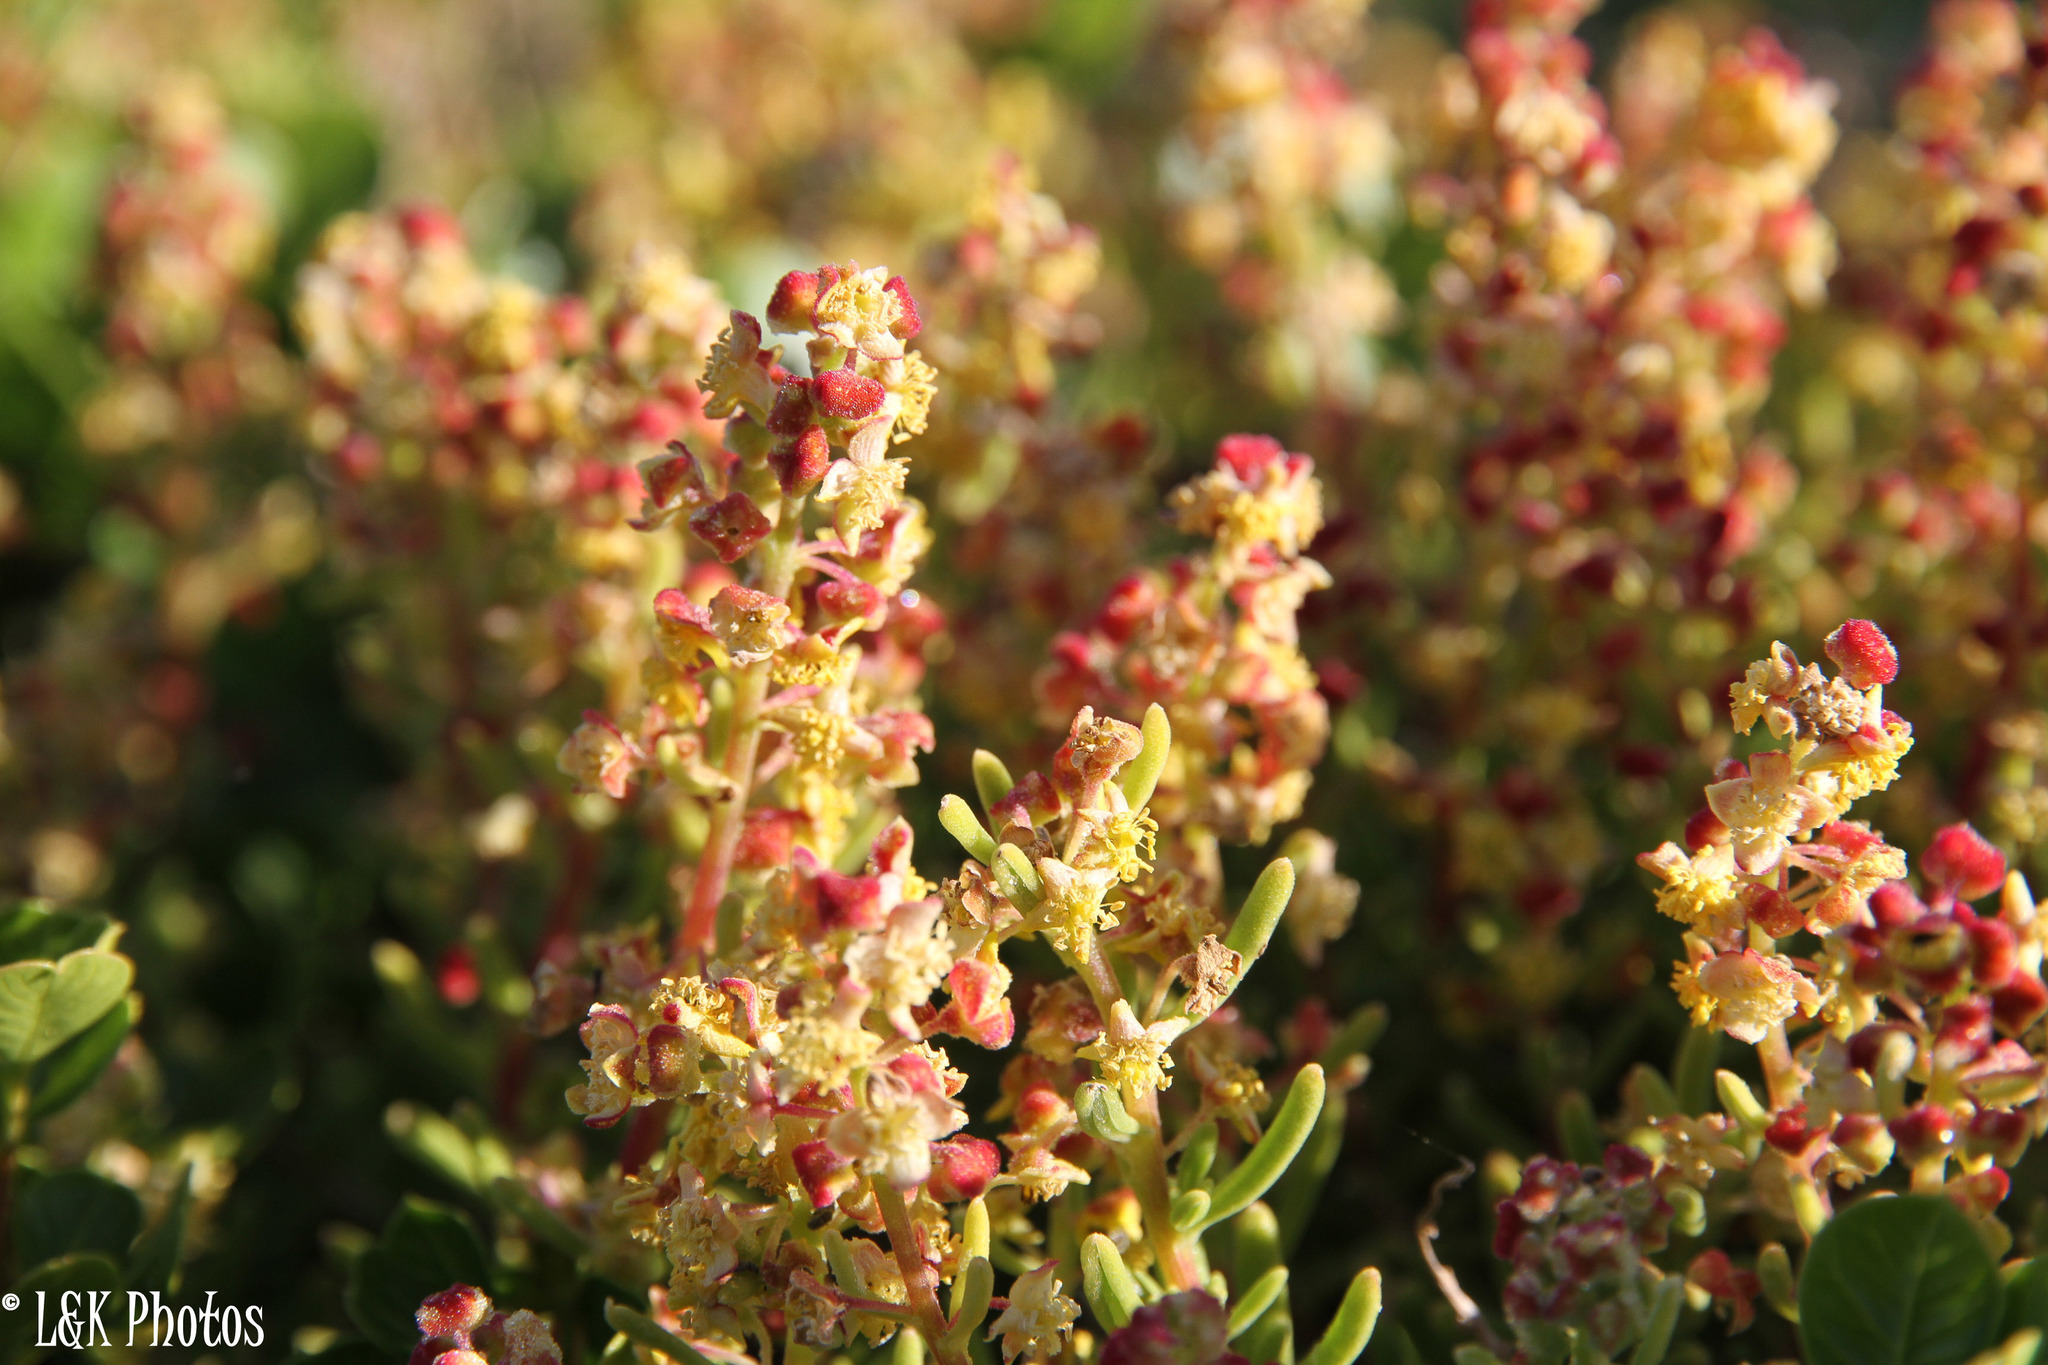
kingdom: Plantae
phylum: Tracheophyta
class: Magnoliopsida
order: Caryophyllales
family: Aizoaceae
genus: Tetragonia
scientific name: Tetragonia fruticosa
